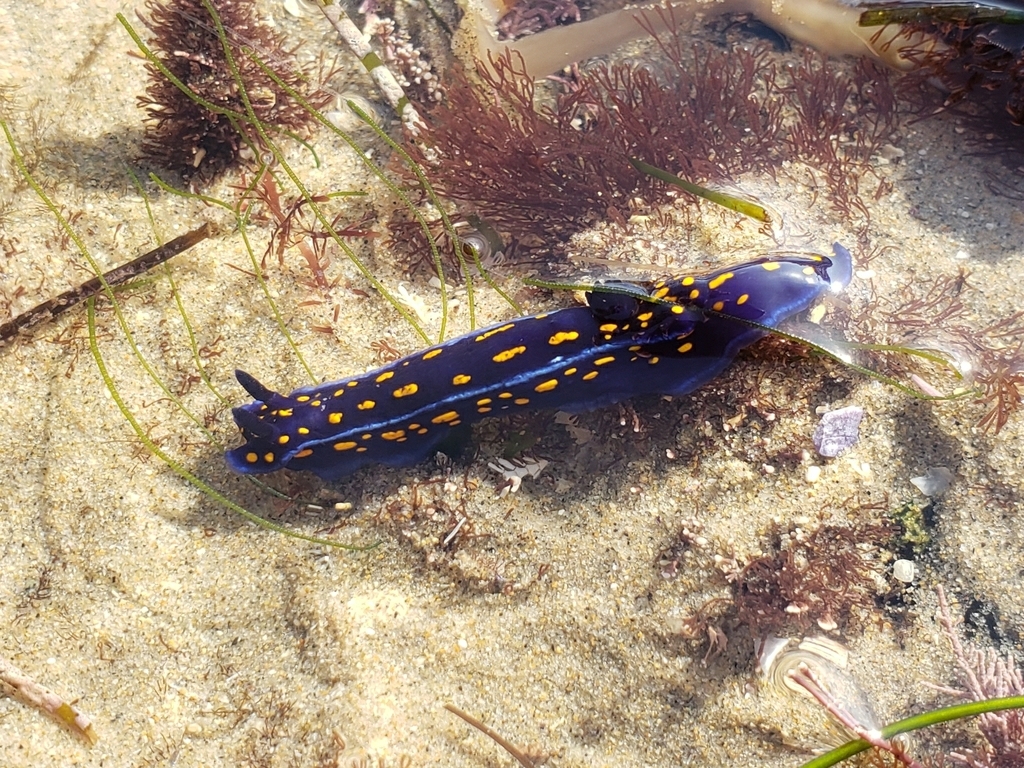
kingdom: Animalia
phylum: Mollusca
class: Gastropoda
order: Nudibranchia
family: Chromodorididae
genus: Felimare
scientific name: Felimare californiensis
